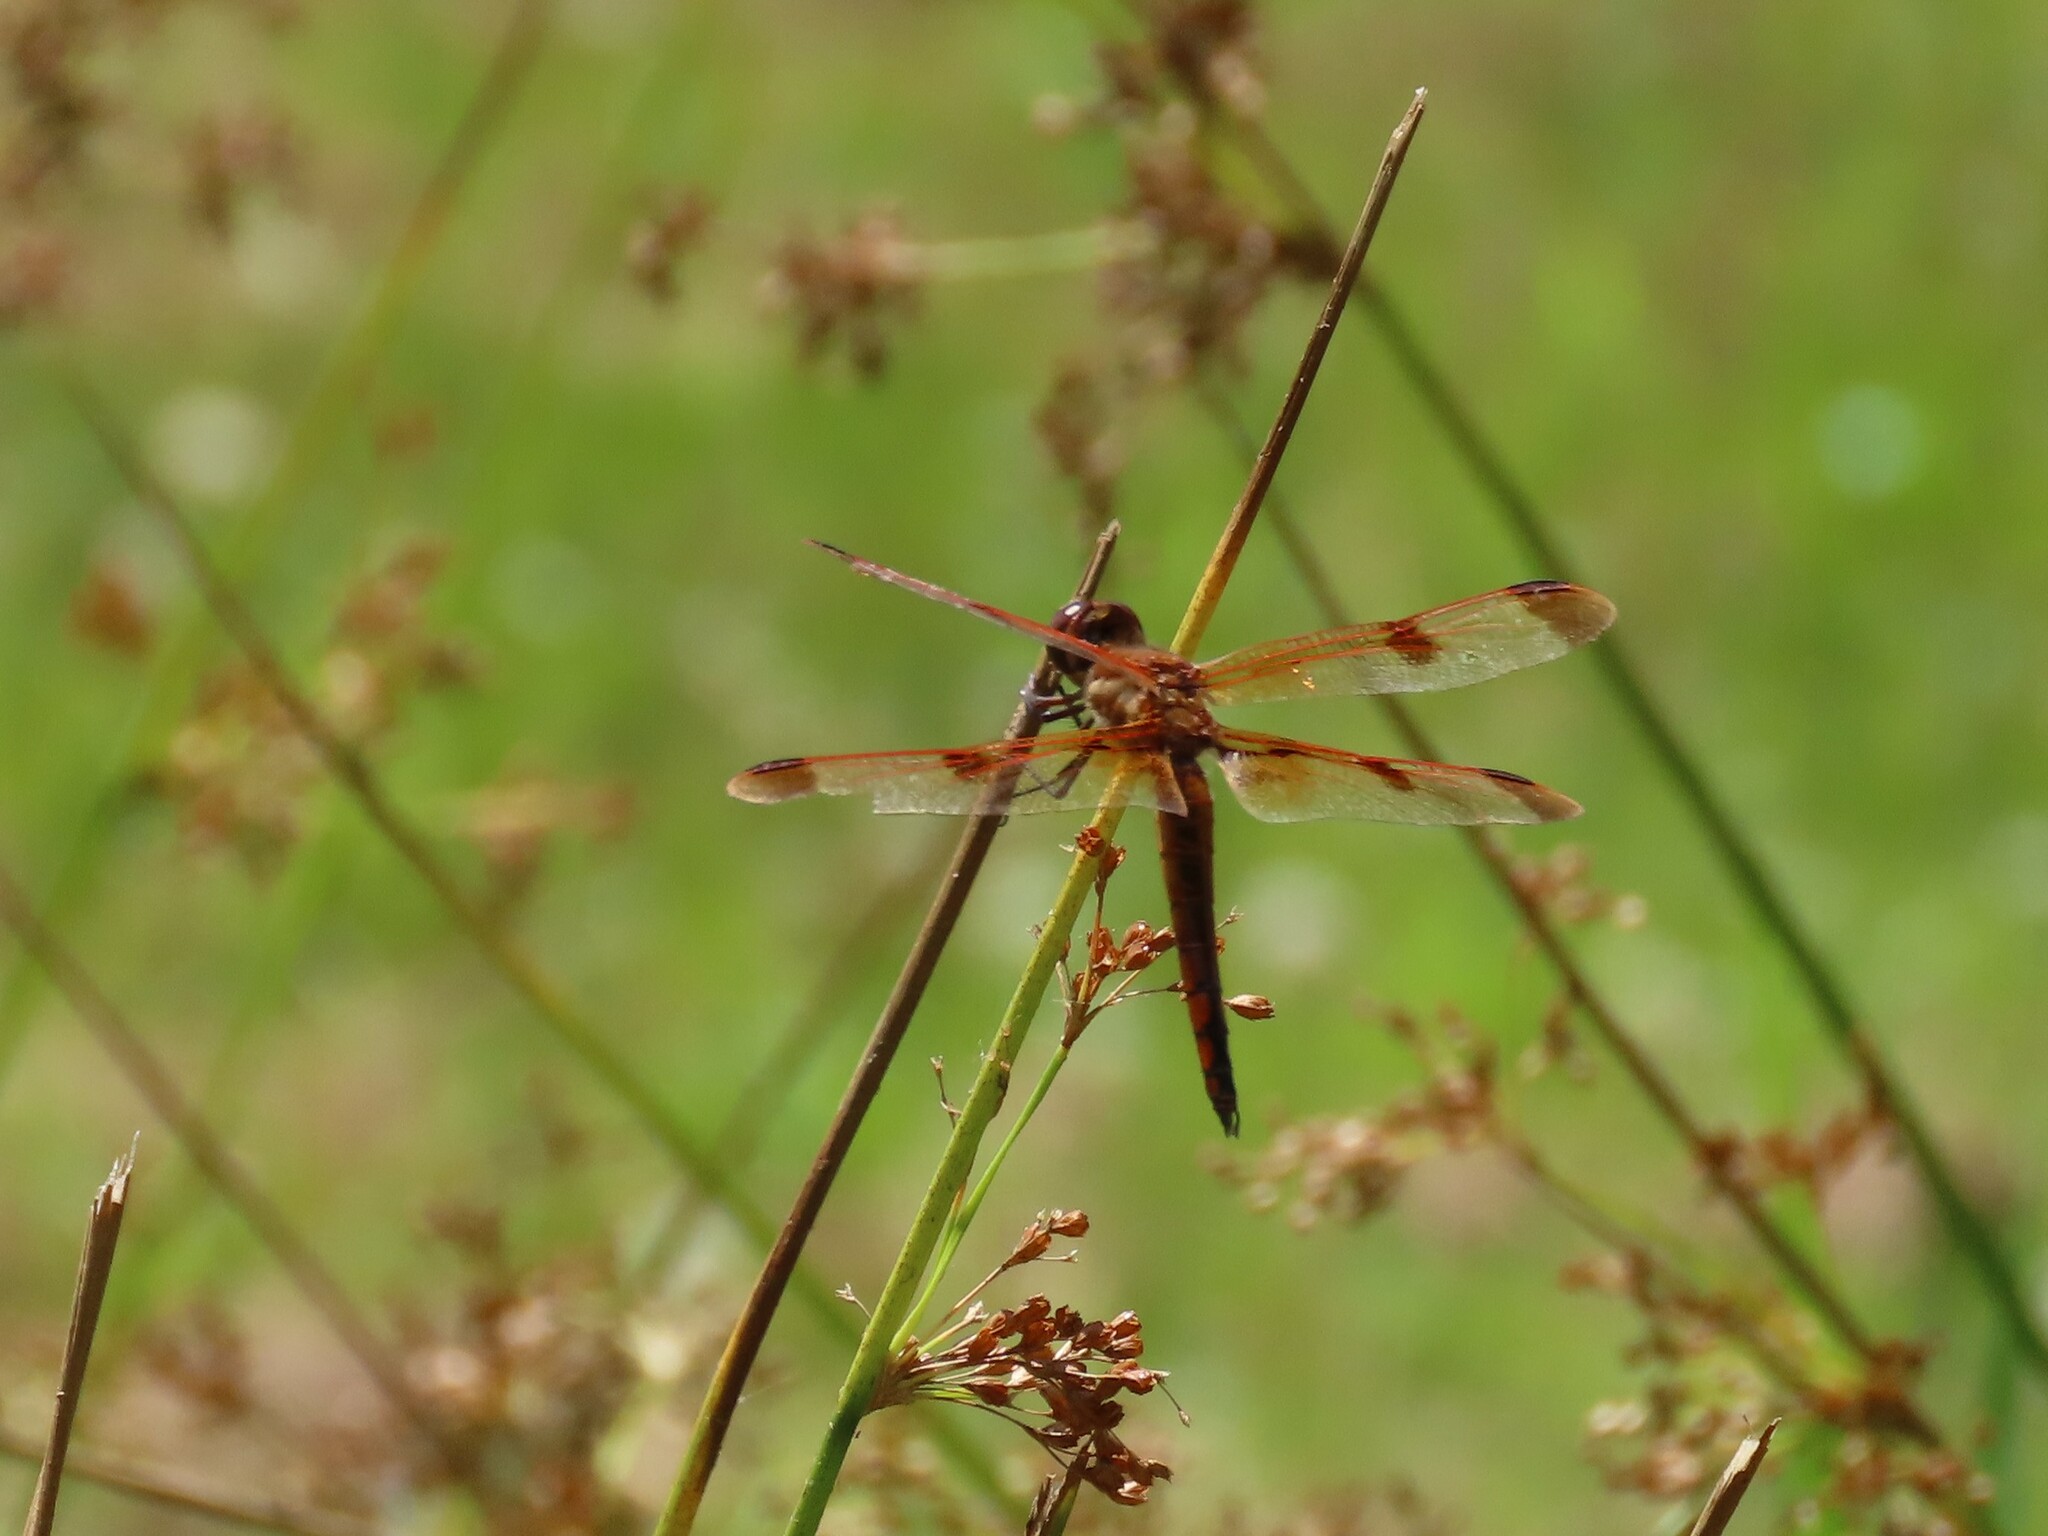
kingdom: Animalia
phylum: Arthropoda
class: Insecta
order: Odonata
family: Libellulidae
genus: Libellula
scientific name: Libellula semifasciata
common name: Painted skimmer
